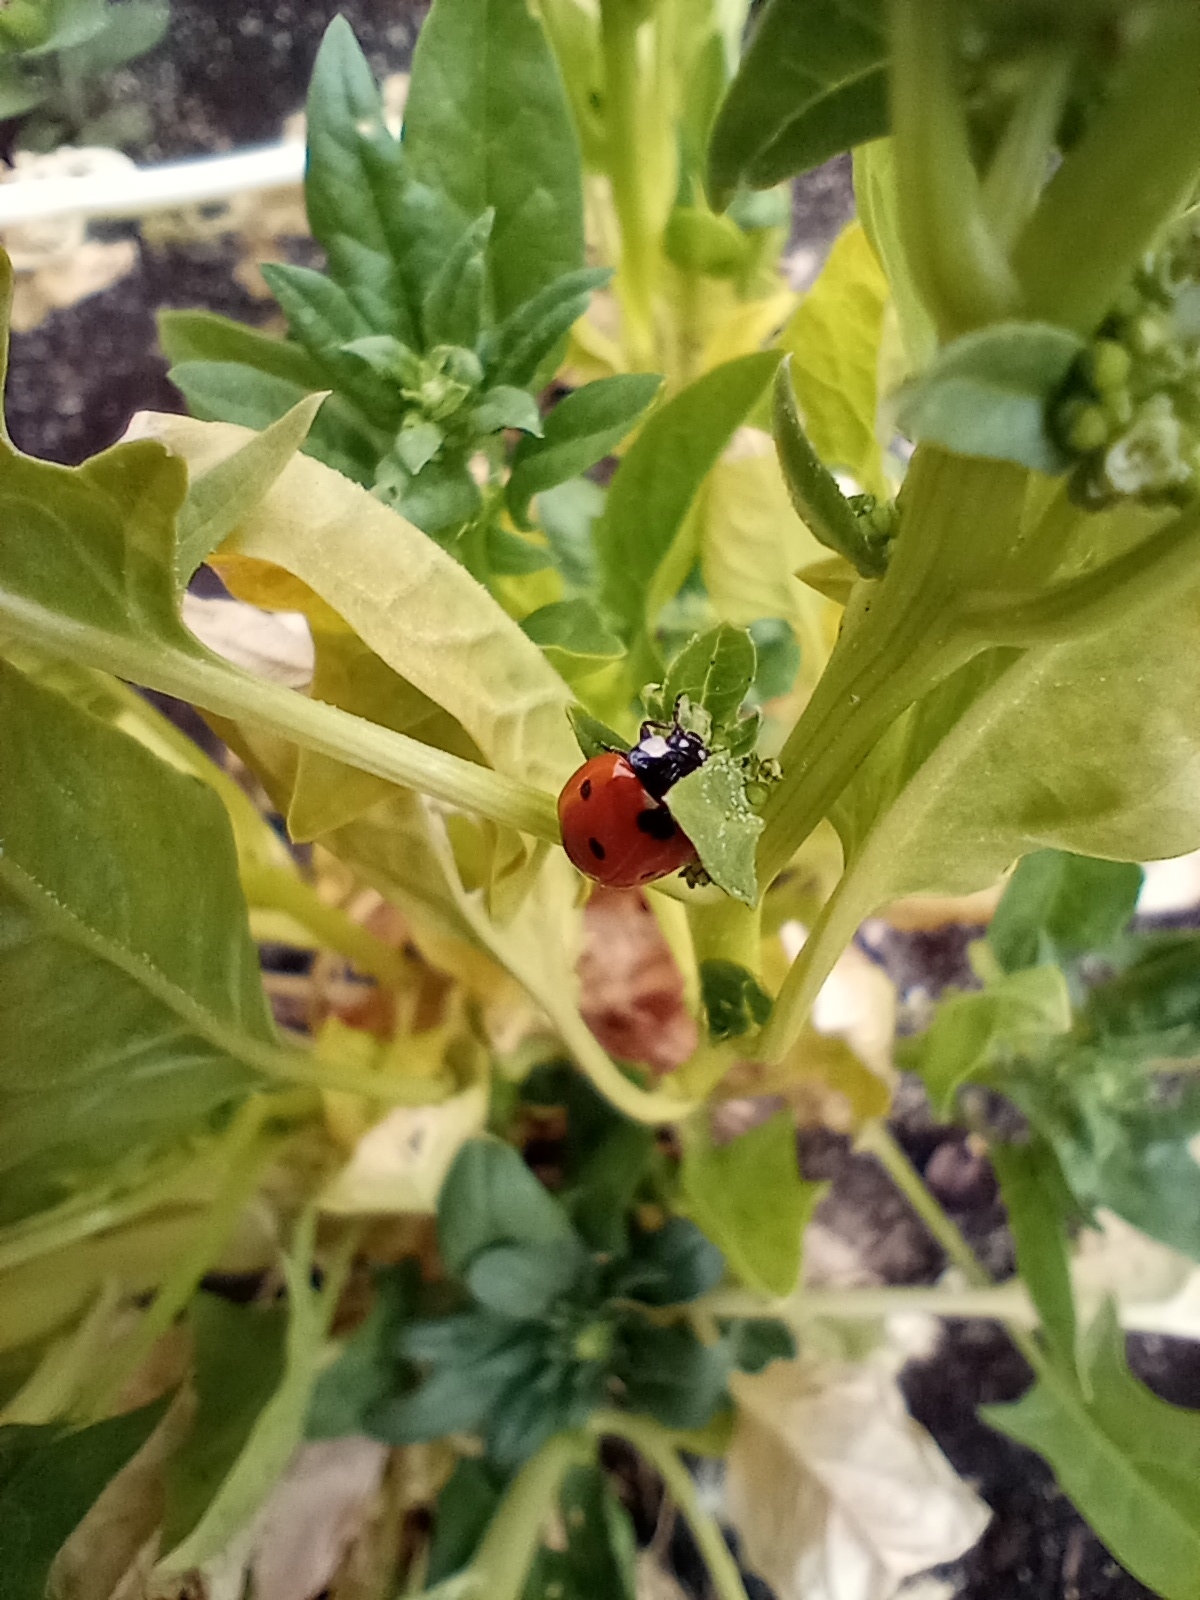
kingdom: Animalia
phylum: Arthropoda
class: Insecta
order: Coleoptera
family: Coccinellidae
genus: Coccinella
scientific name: Coccinella septempunctata
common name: Sevenspotted lady beetle
